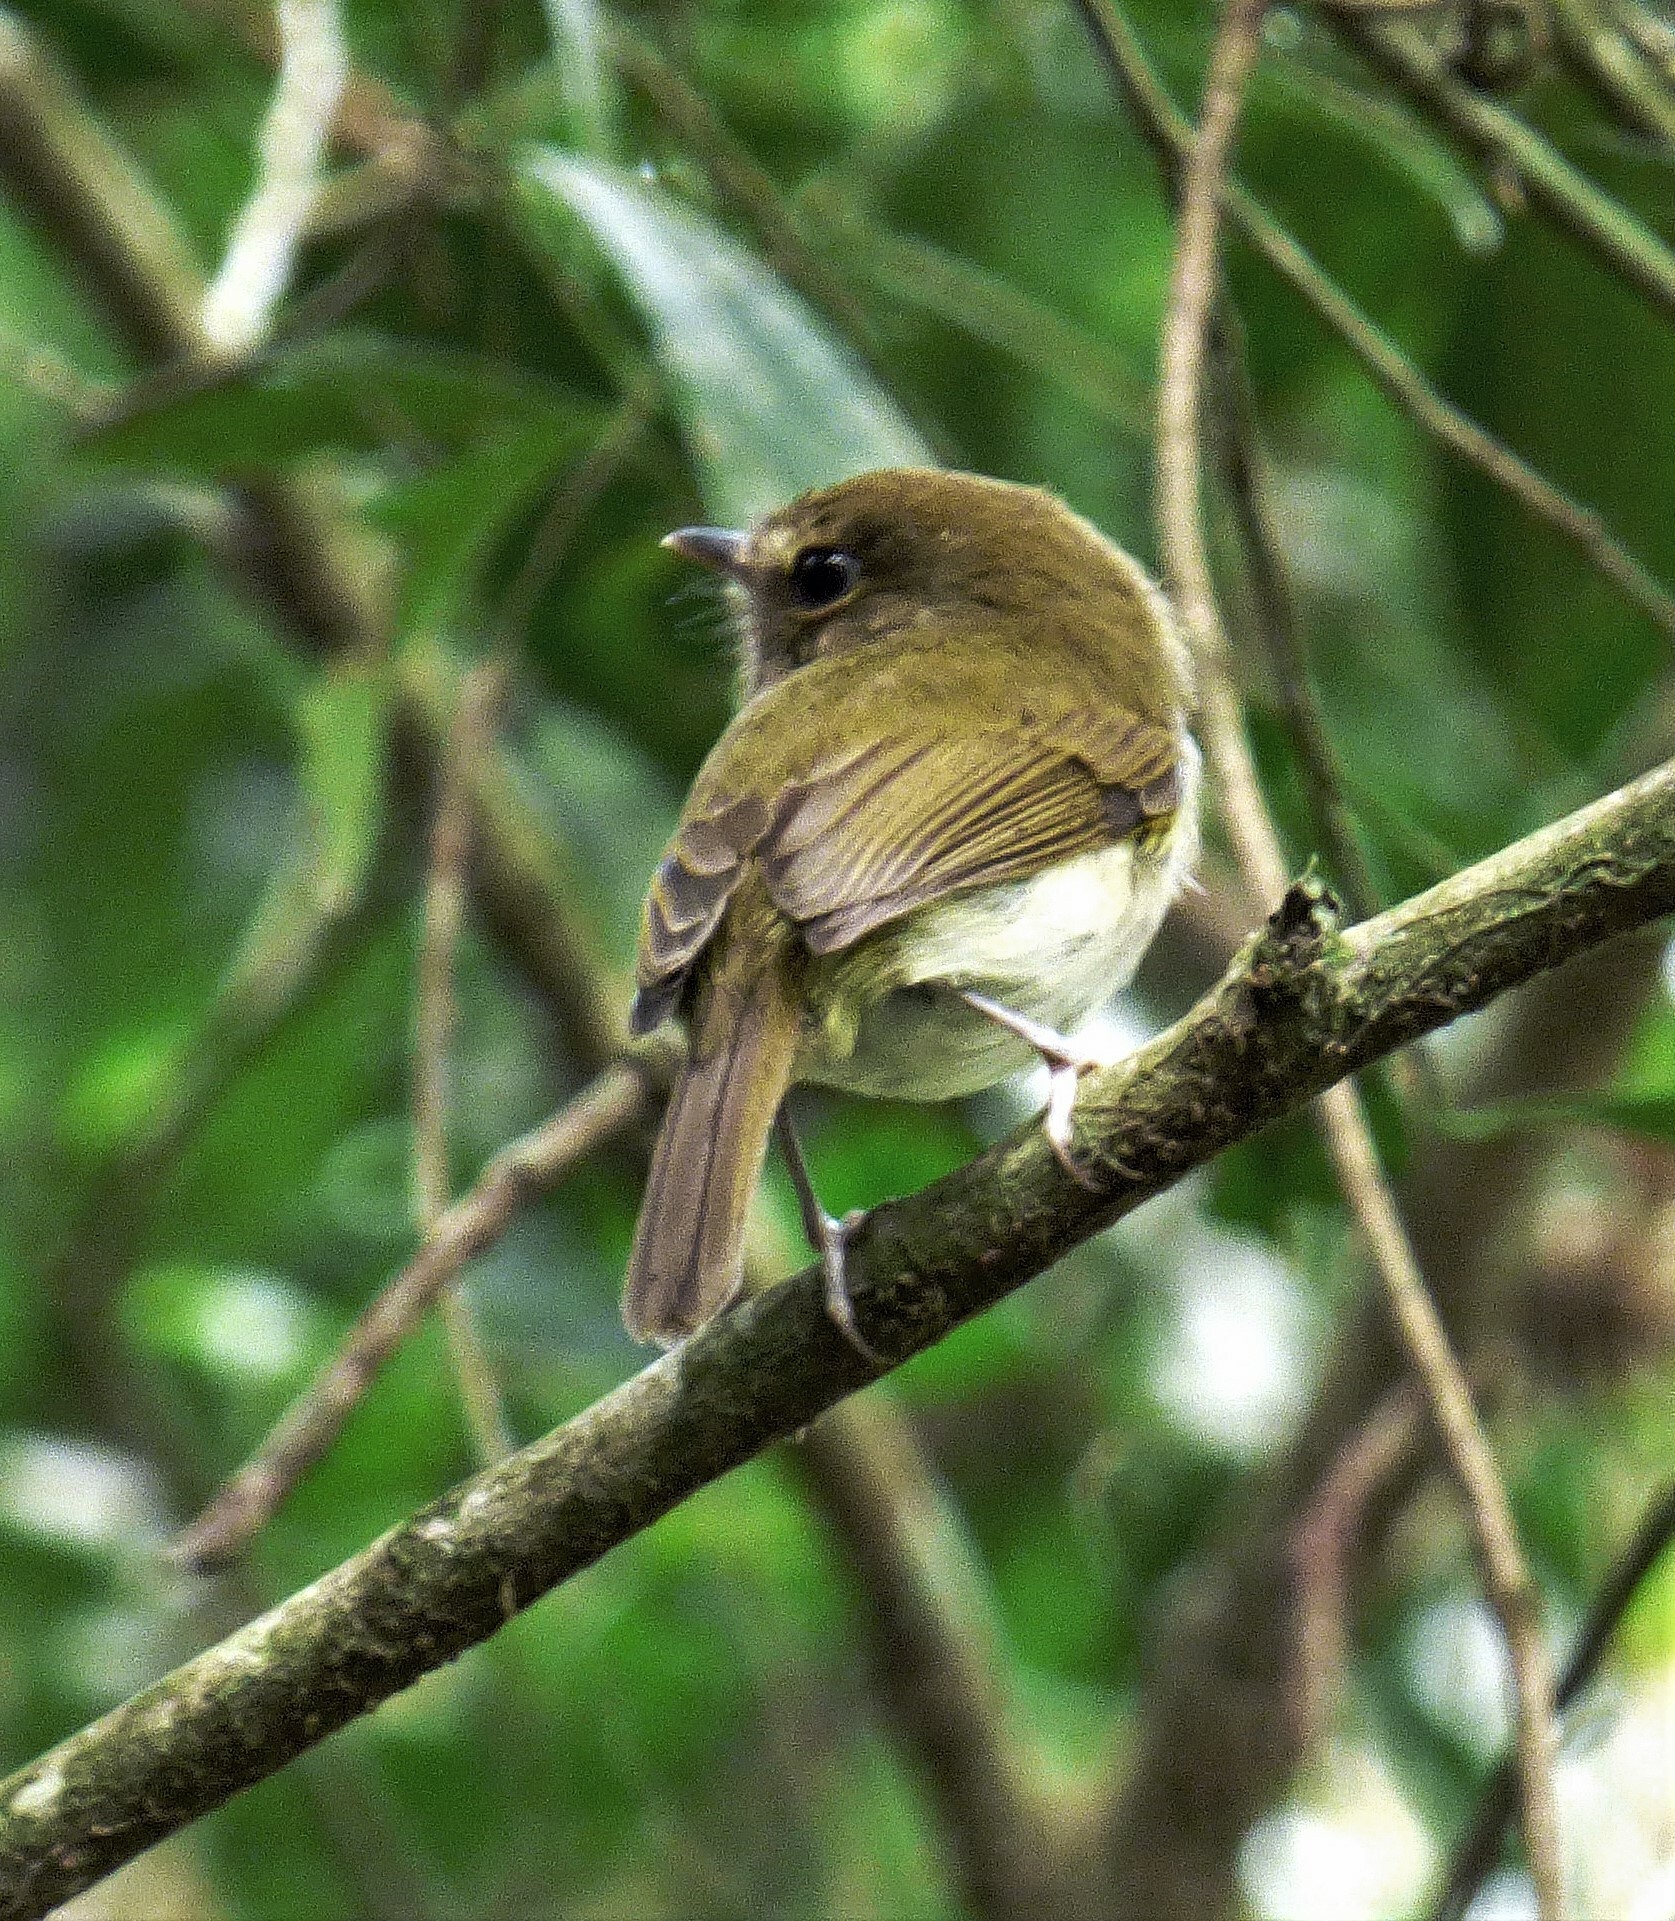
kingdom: Animalia
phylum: Chordata
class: Aves
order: Passeriformes
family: Tyrannidae
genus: Hemitriccus
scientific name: Hemitriccus diops
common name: Drab-breasted bamboo tyrant
